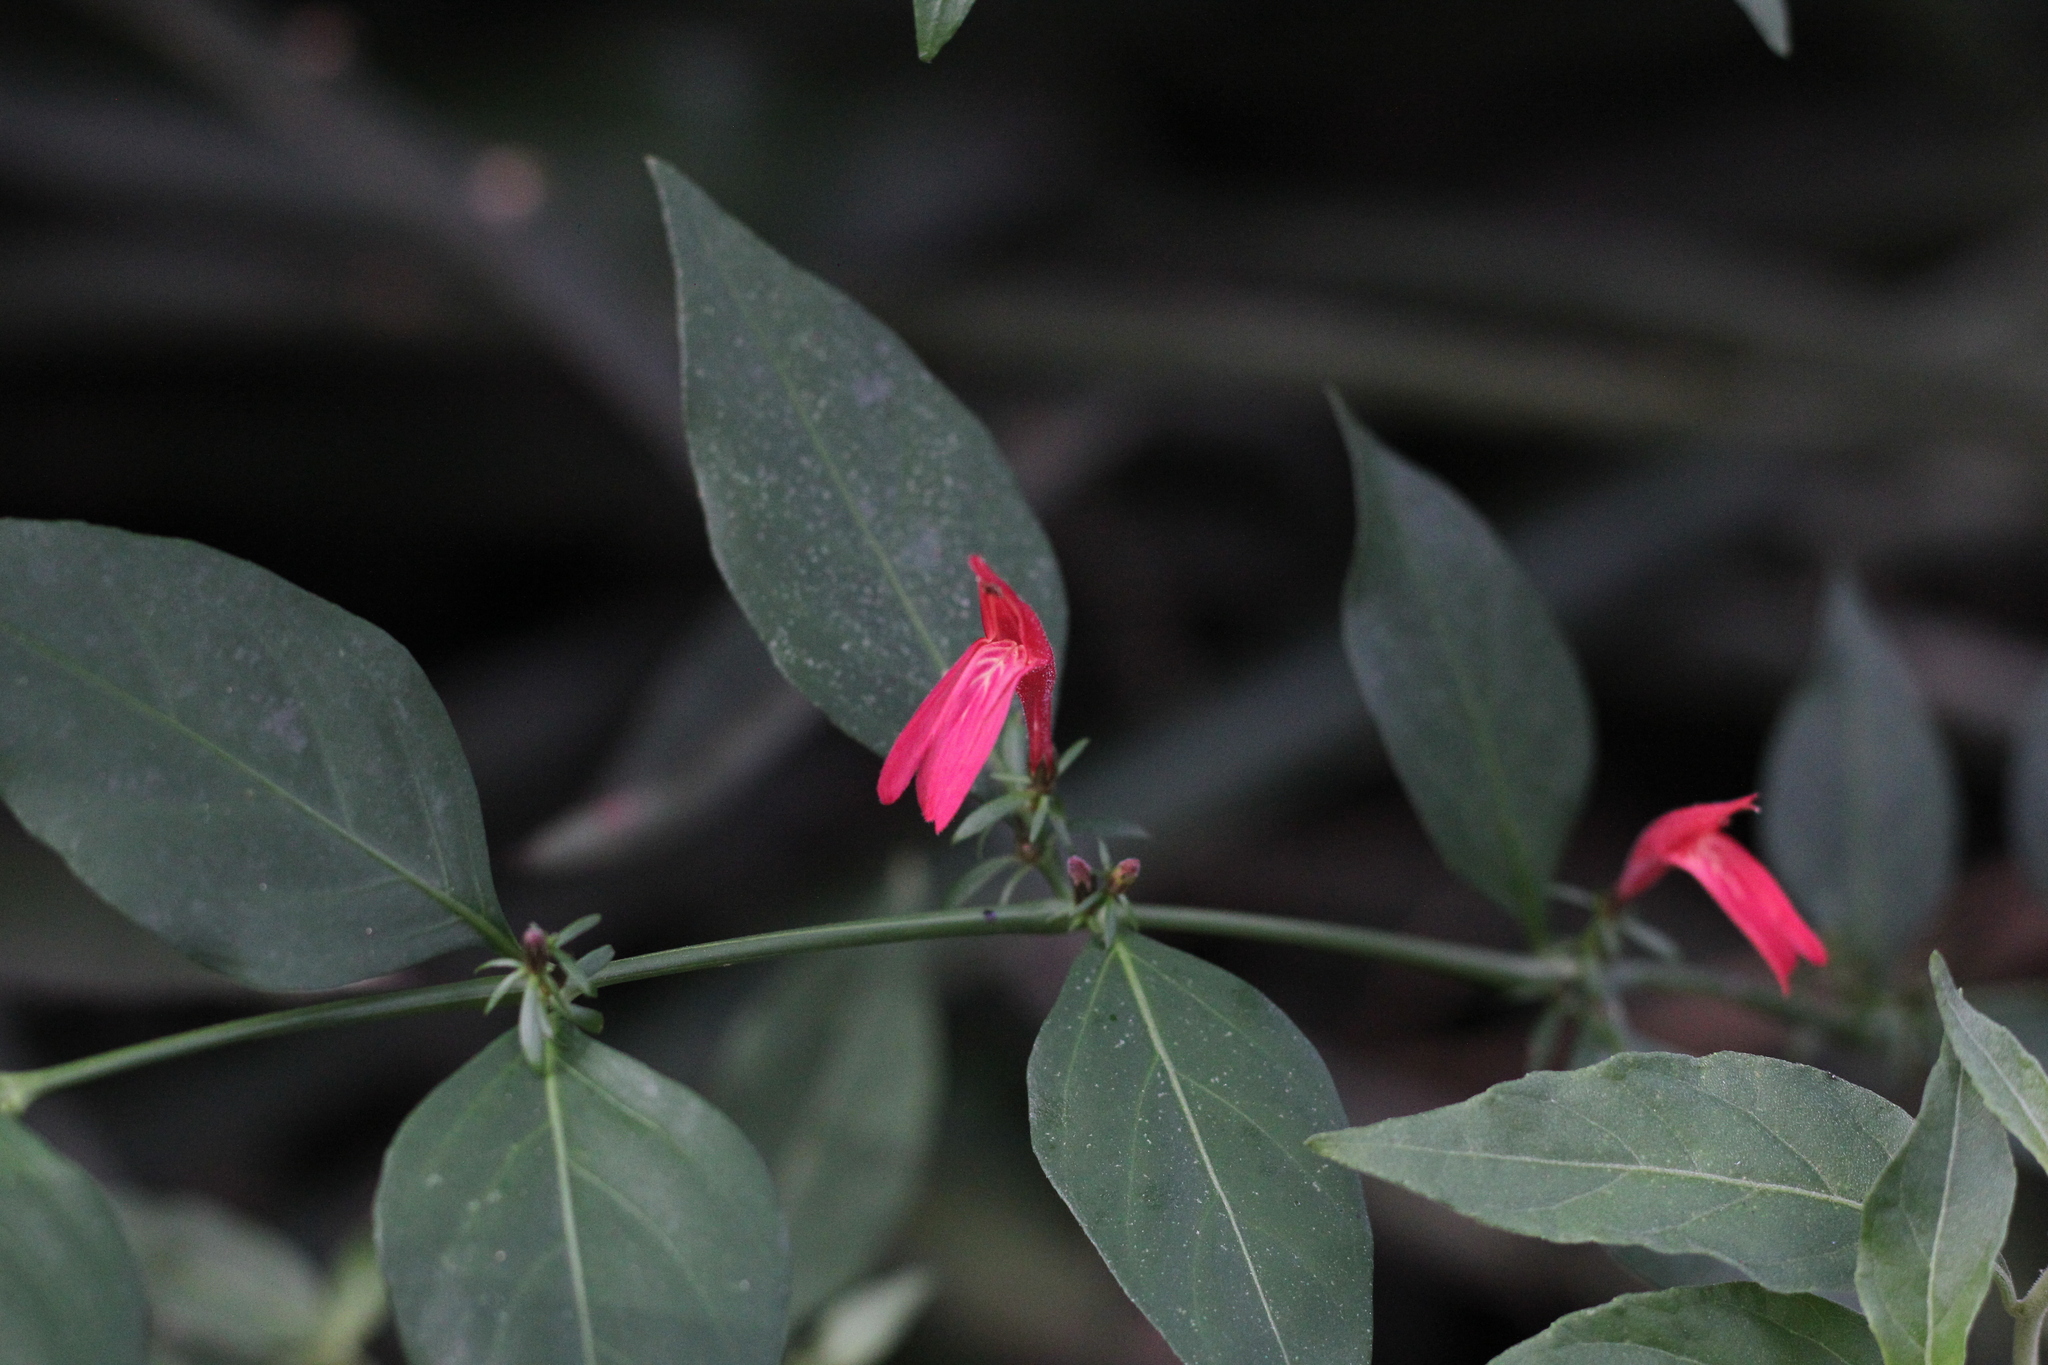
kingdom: Plantae
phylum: Tracheophyta
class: Magnoliopsida
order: Lamiales
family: Acanthaceae
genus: Justicia
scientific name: Justicia brasiliana
